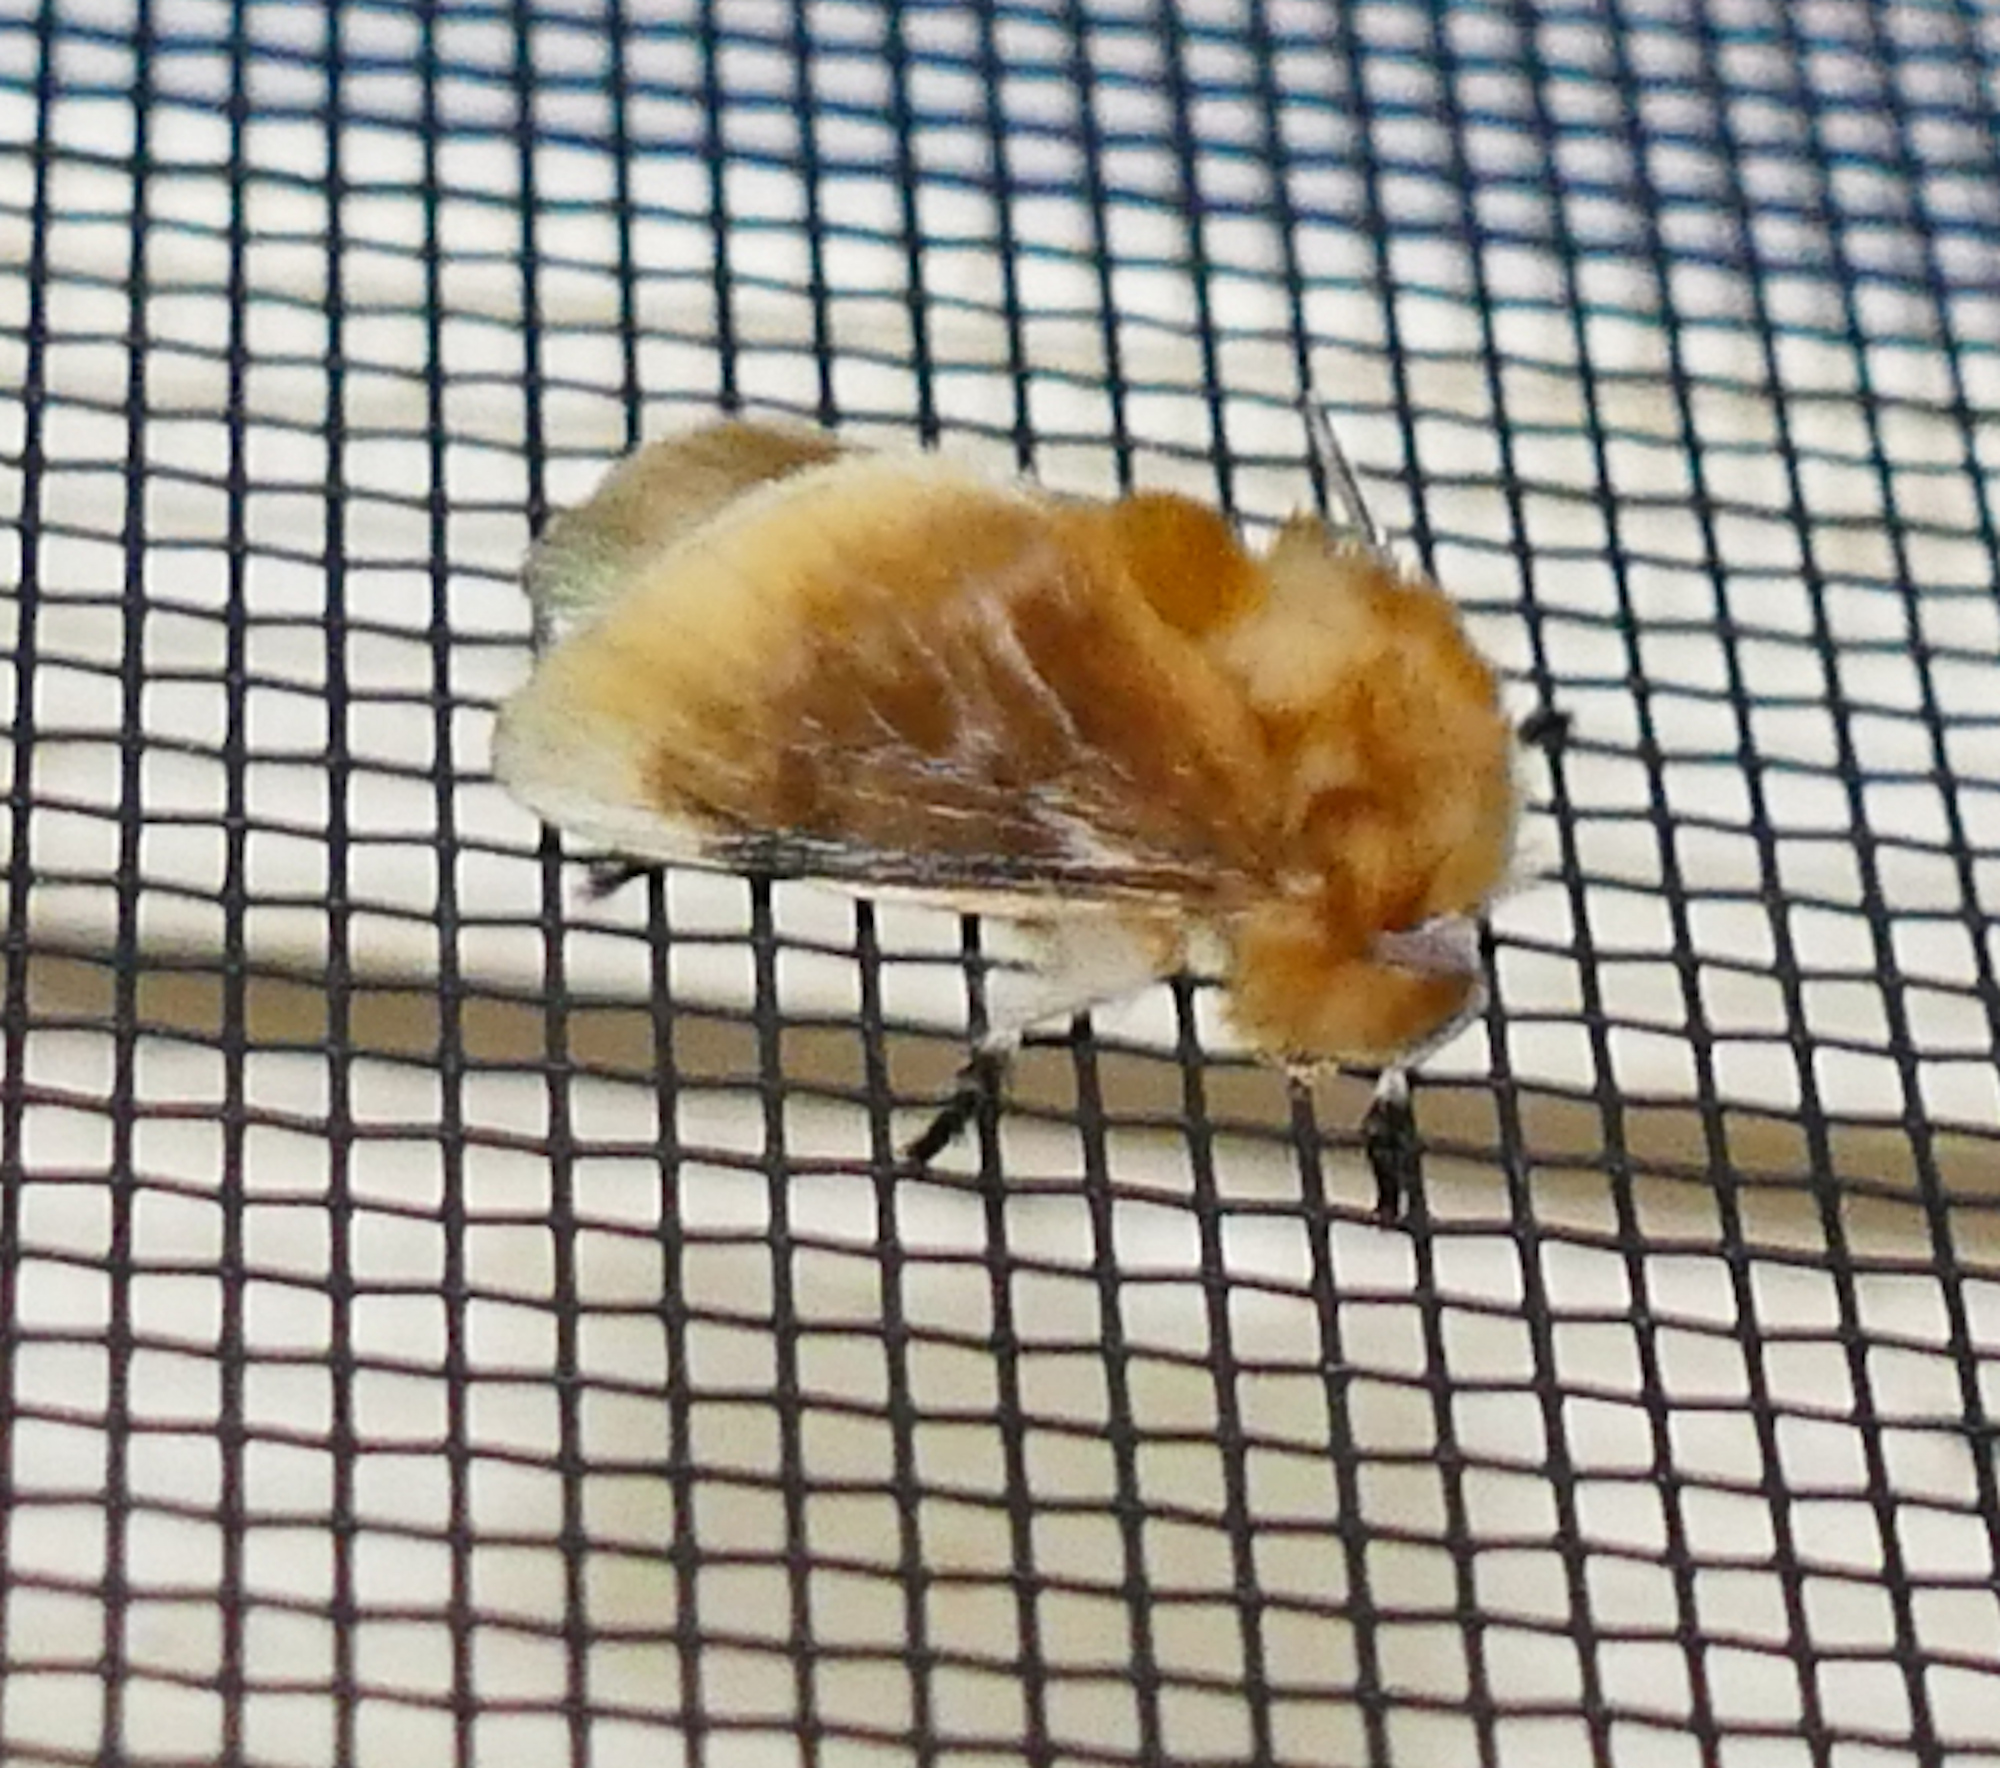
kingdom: Animalia
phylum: Arthropoda
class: Insecta
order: Lepidoptera
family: Megalopygidae
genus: Megalopyge
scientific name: Megalopyge opercularis
